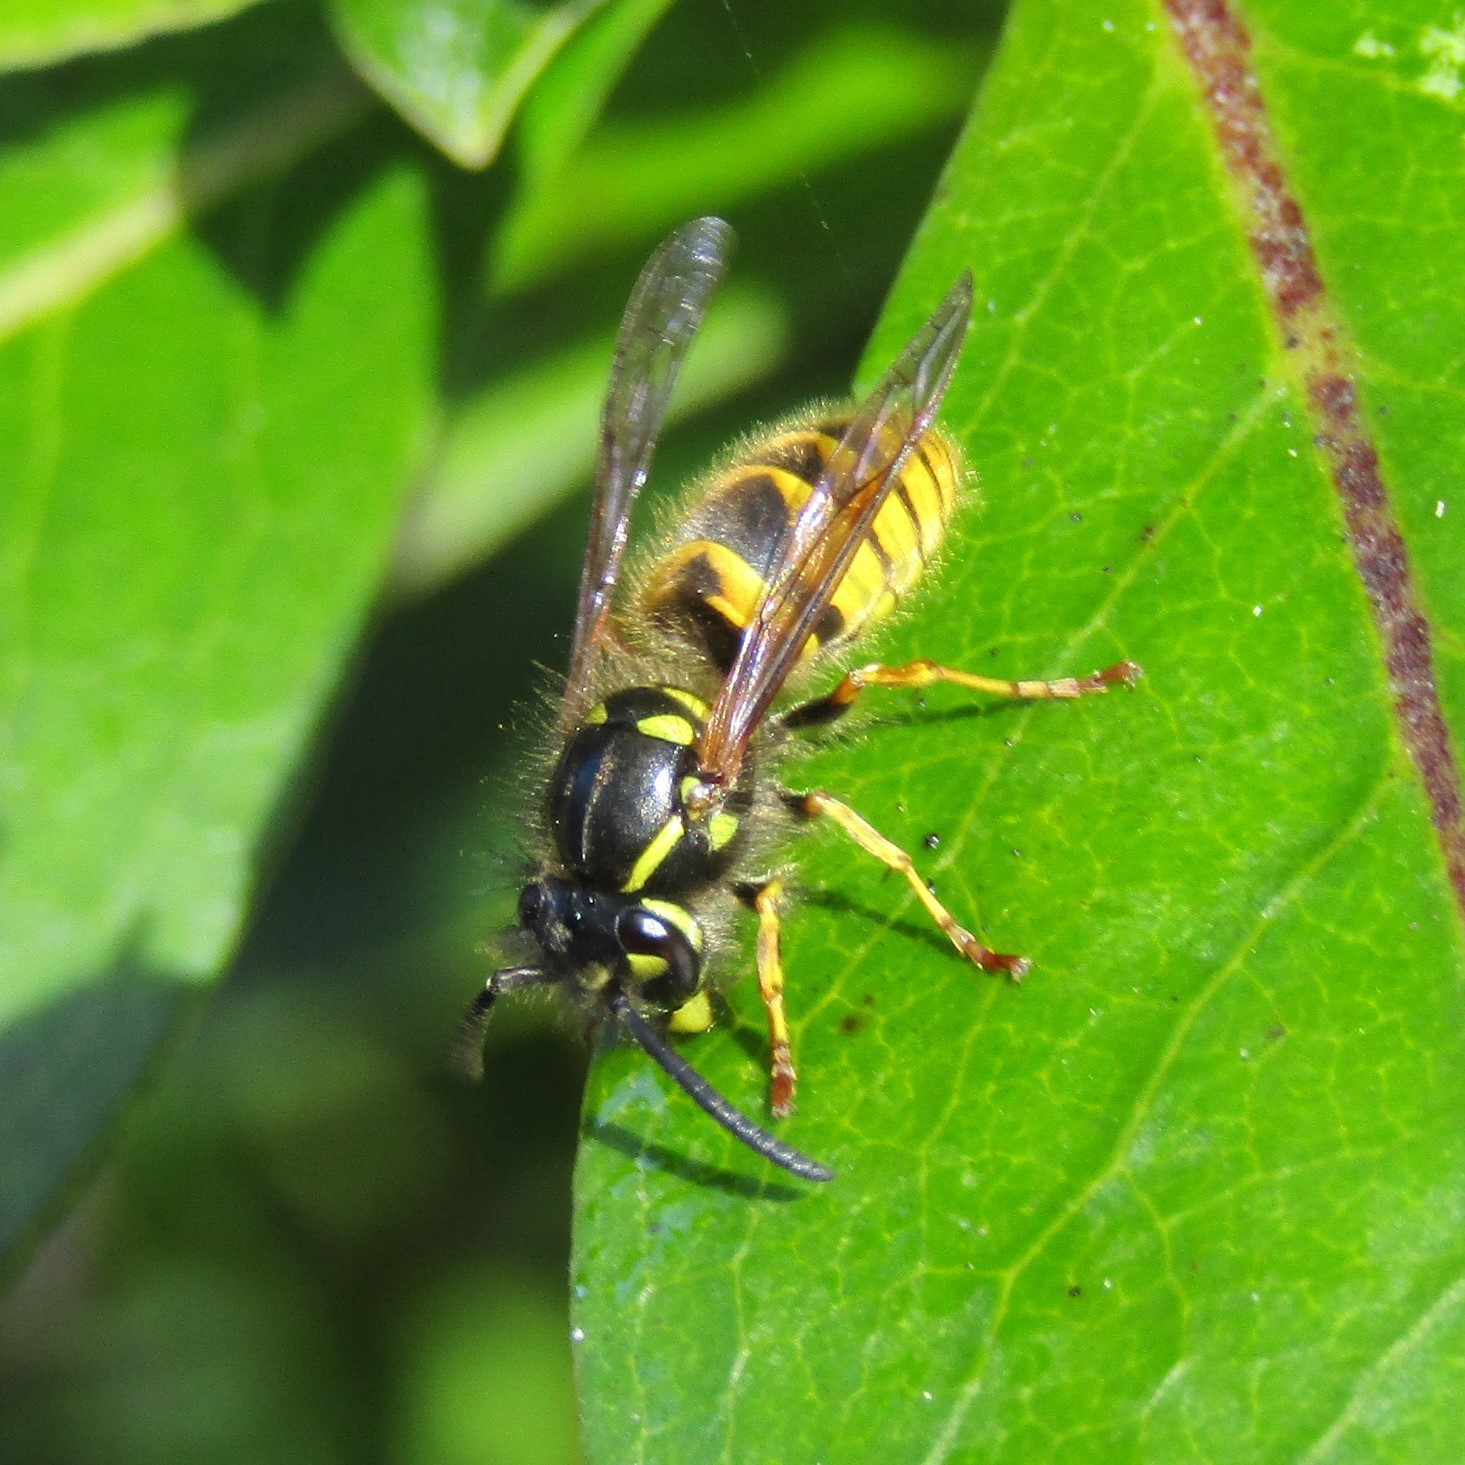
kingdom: Animalia
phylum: Arthropoda
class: Insecta
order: Hymenoptera
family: Vespidae
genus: Vespula
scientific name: Vespula vulgaris
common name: Common wasp
